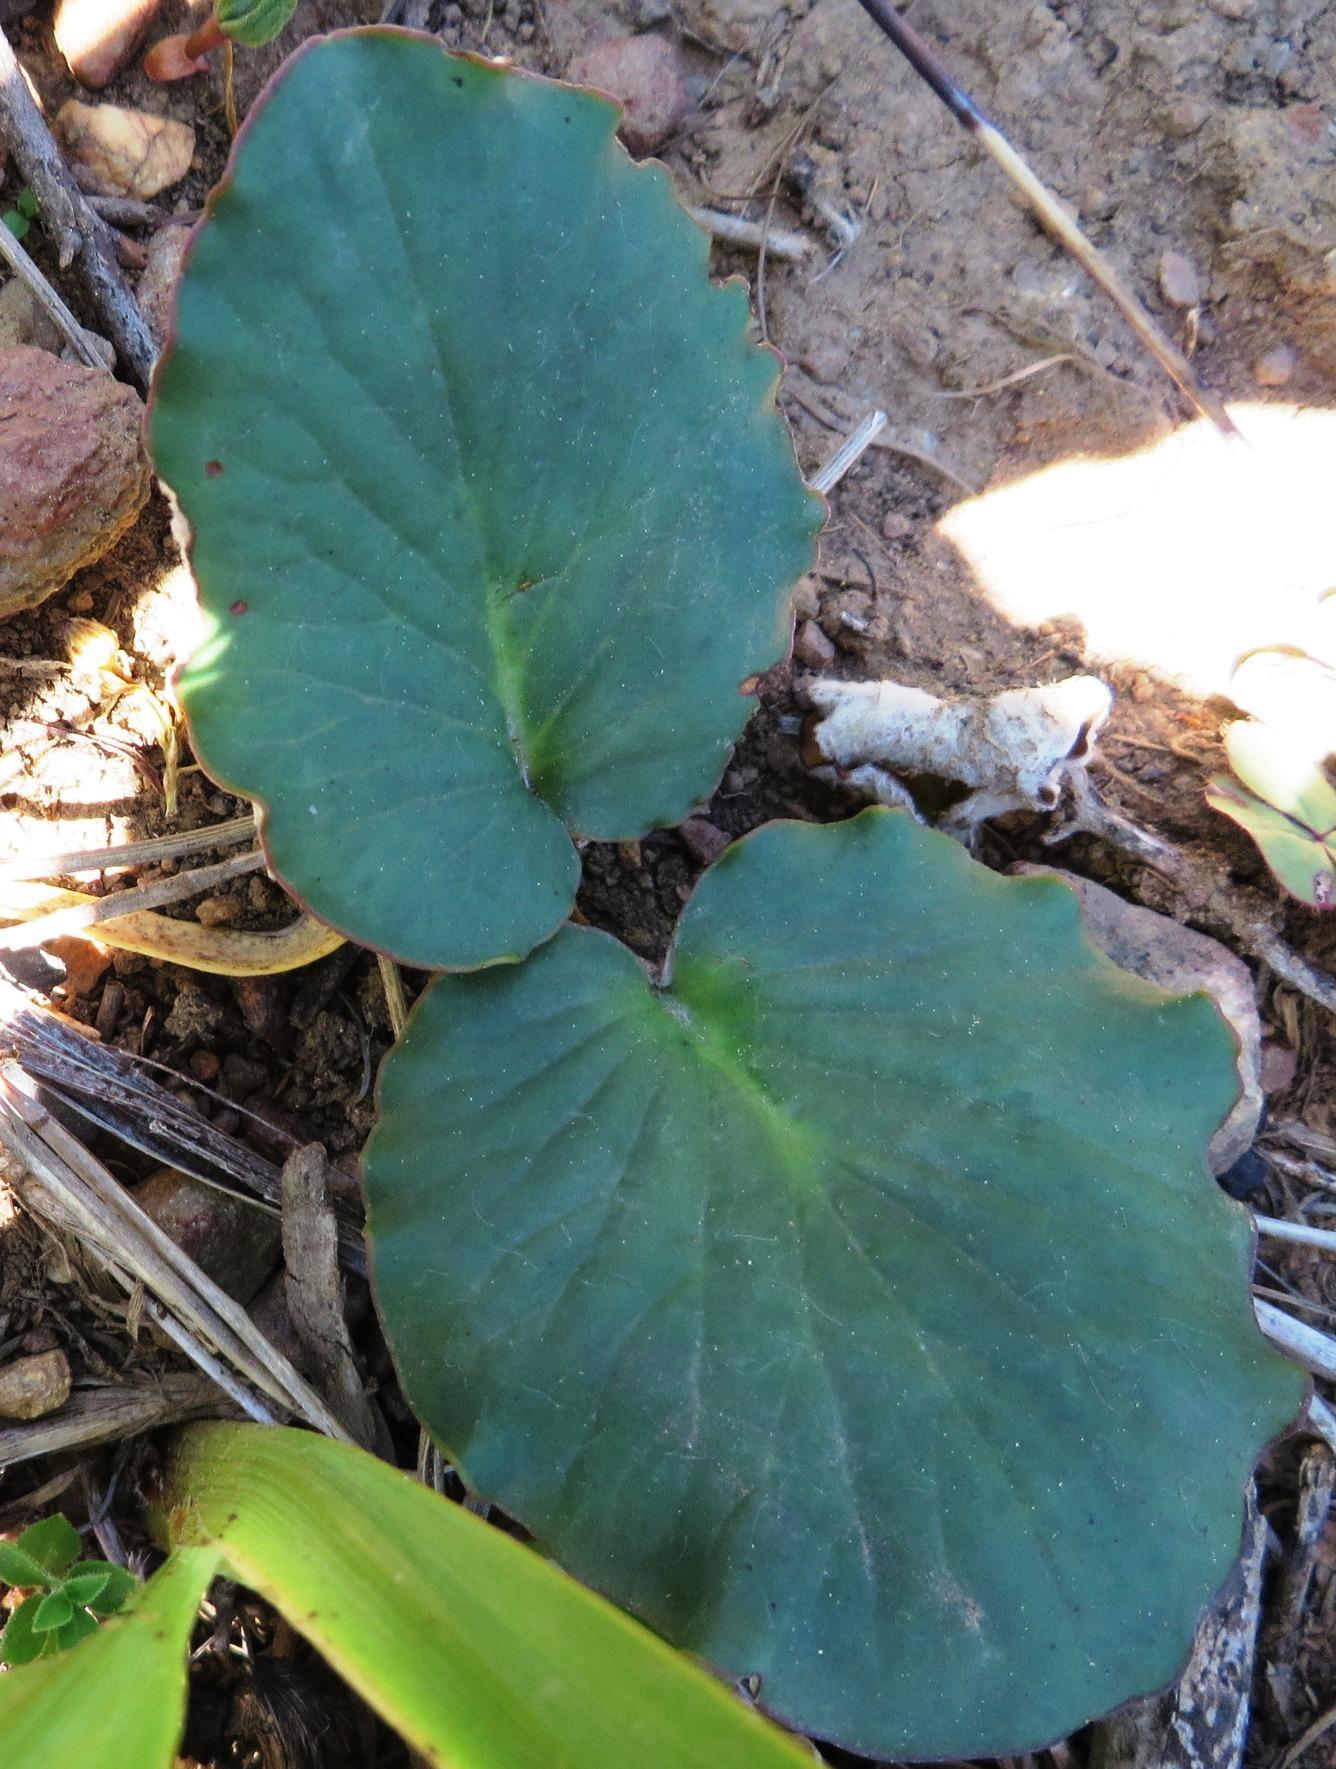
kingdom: Plantae
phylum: Tracheophyta
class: Magnoliopsida
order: Geraniales
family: Geraniaceae
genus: Pelargonium
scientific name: Pelargonium asarifolium
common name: Asarum-leaf pelargonium
